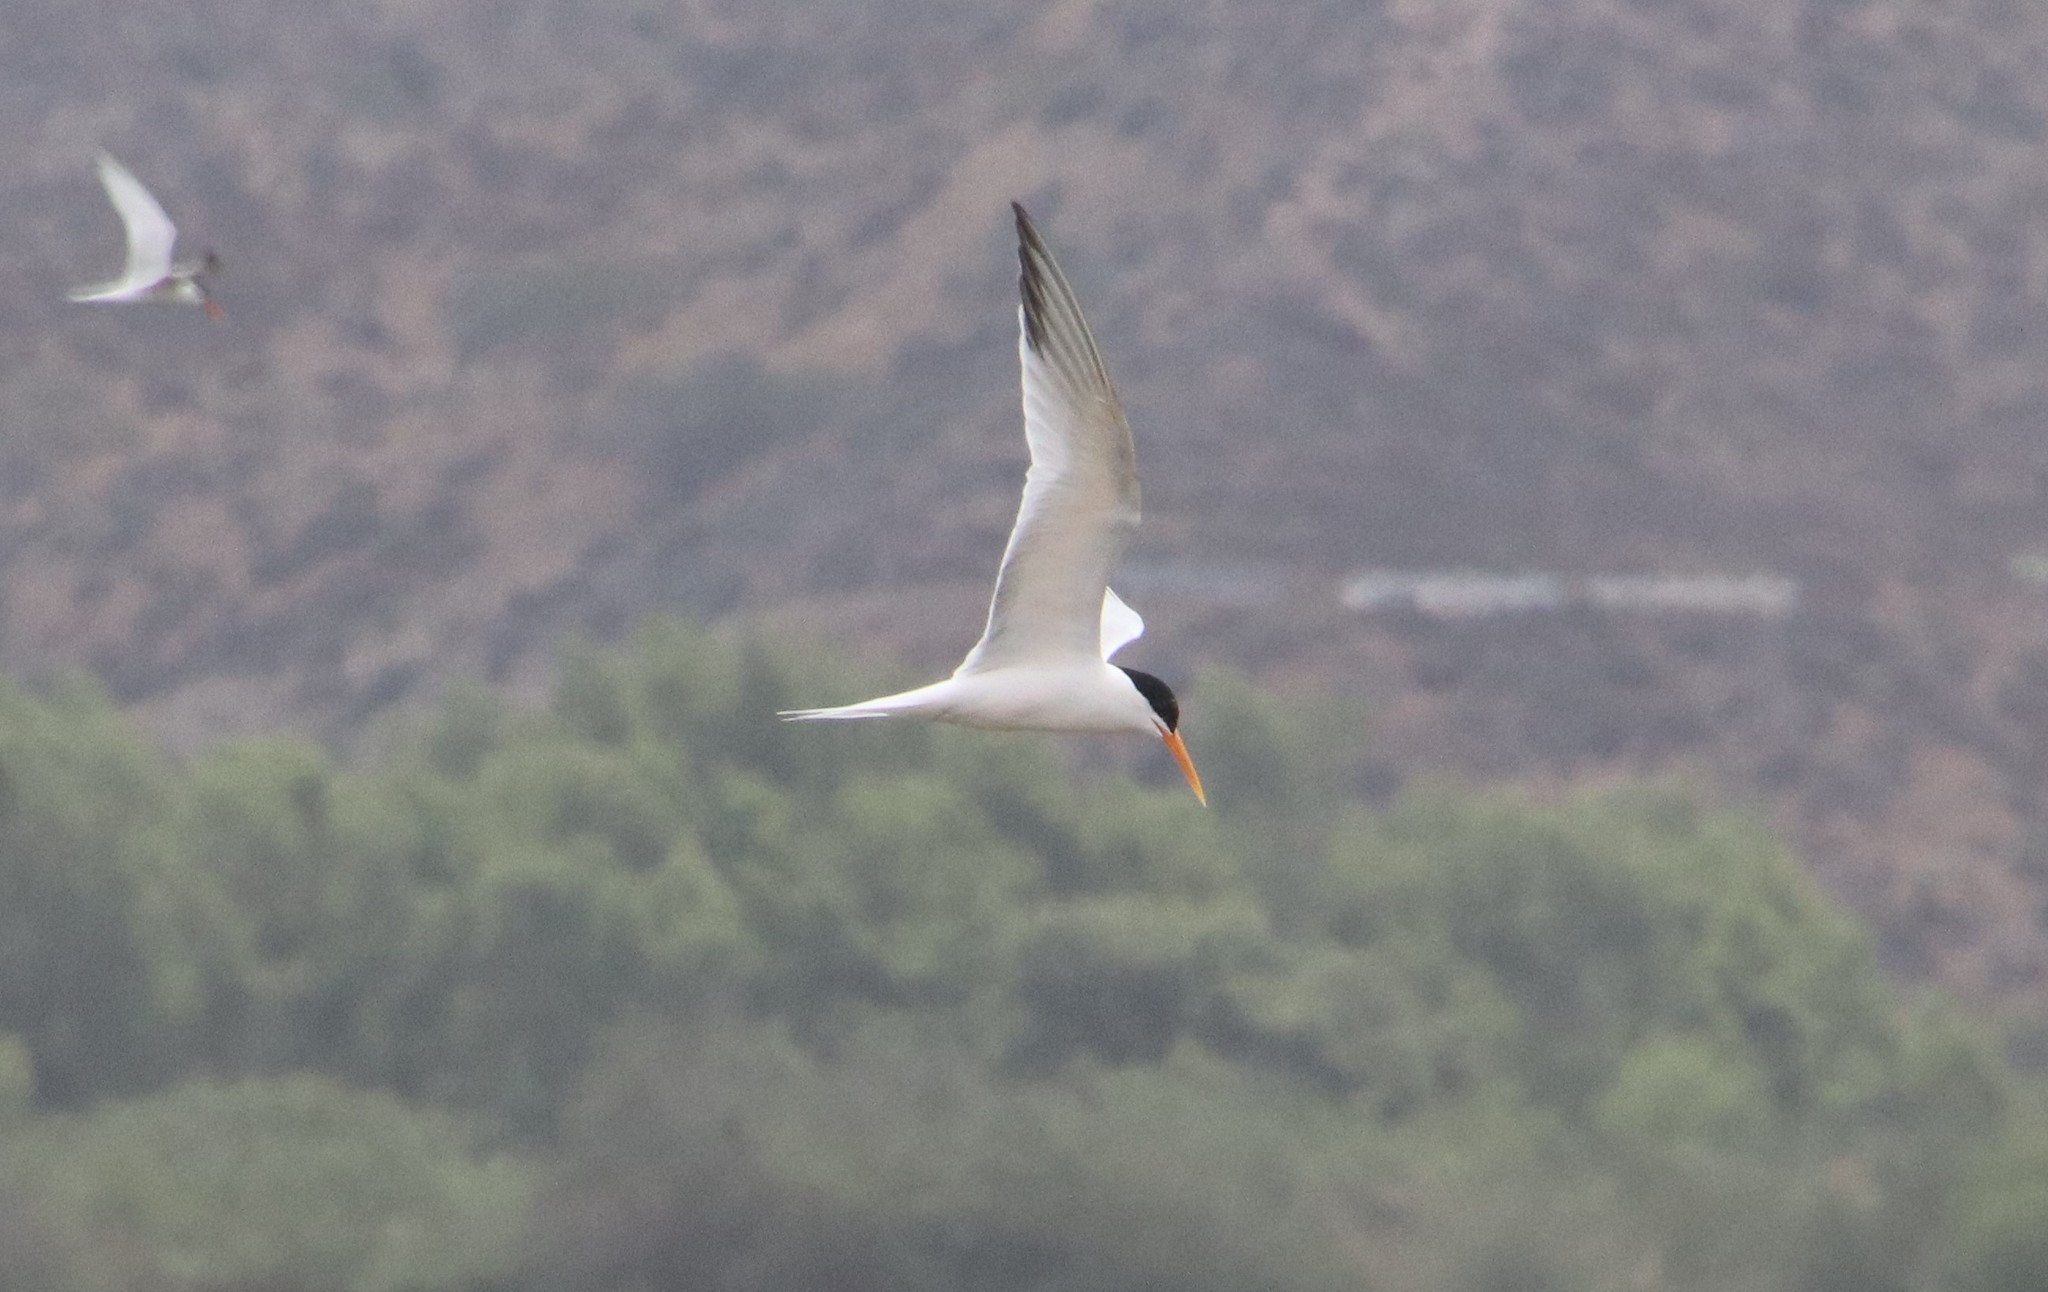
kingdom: Animalia
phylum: Chordata
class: Aves
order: Charadriiformes
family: Laridae
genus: Thalasseus
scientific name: Thalasseus elegans
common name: Elegant tern
